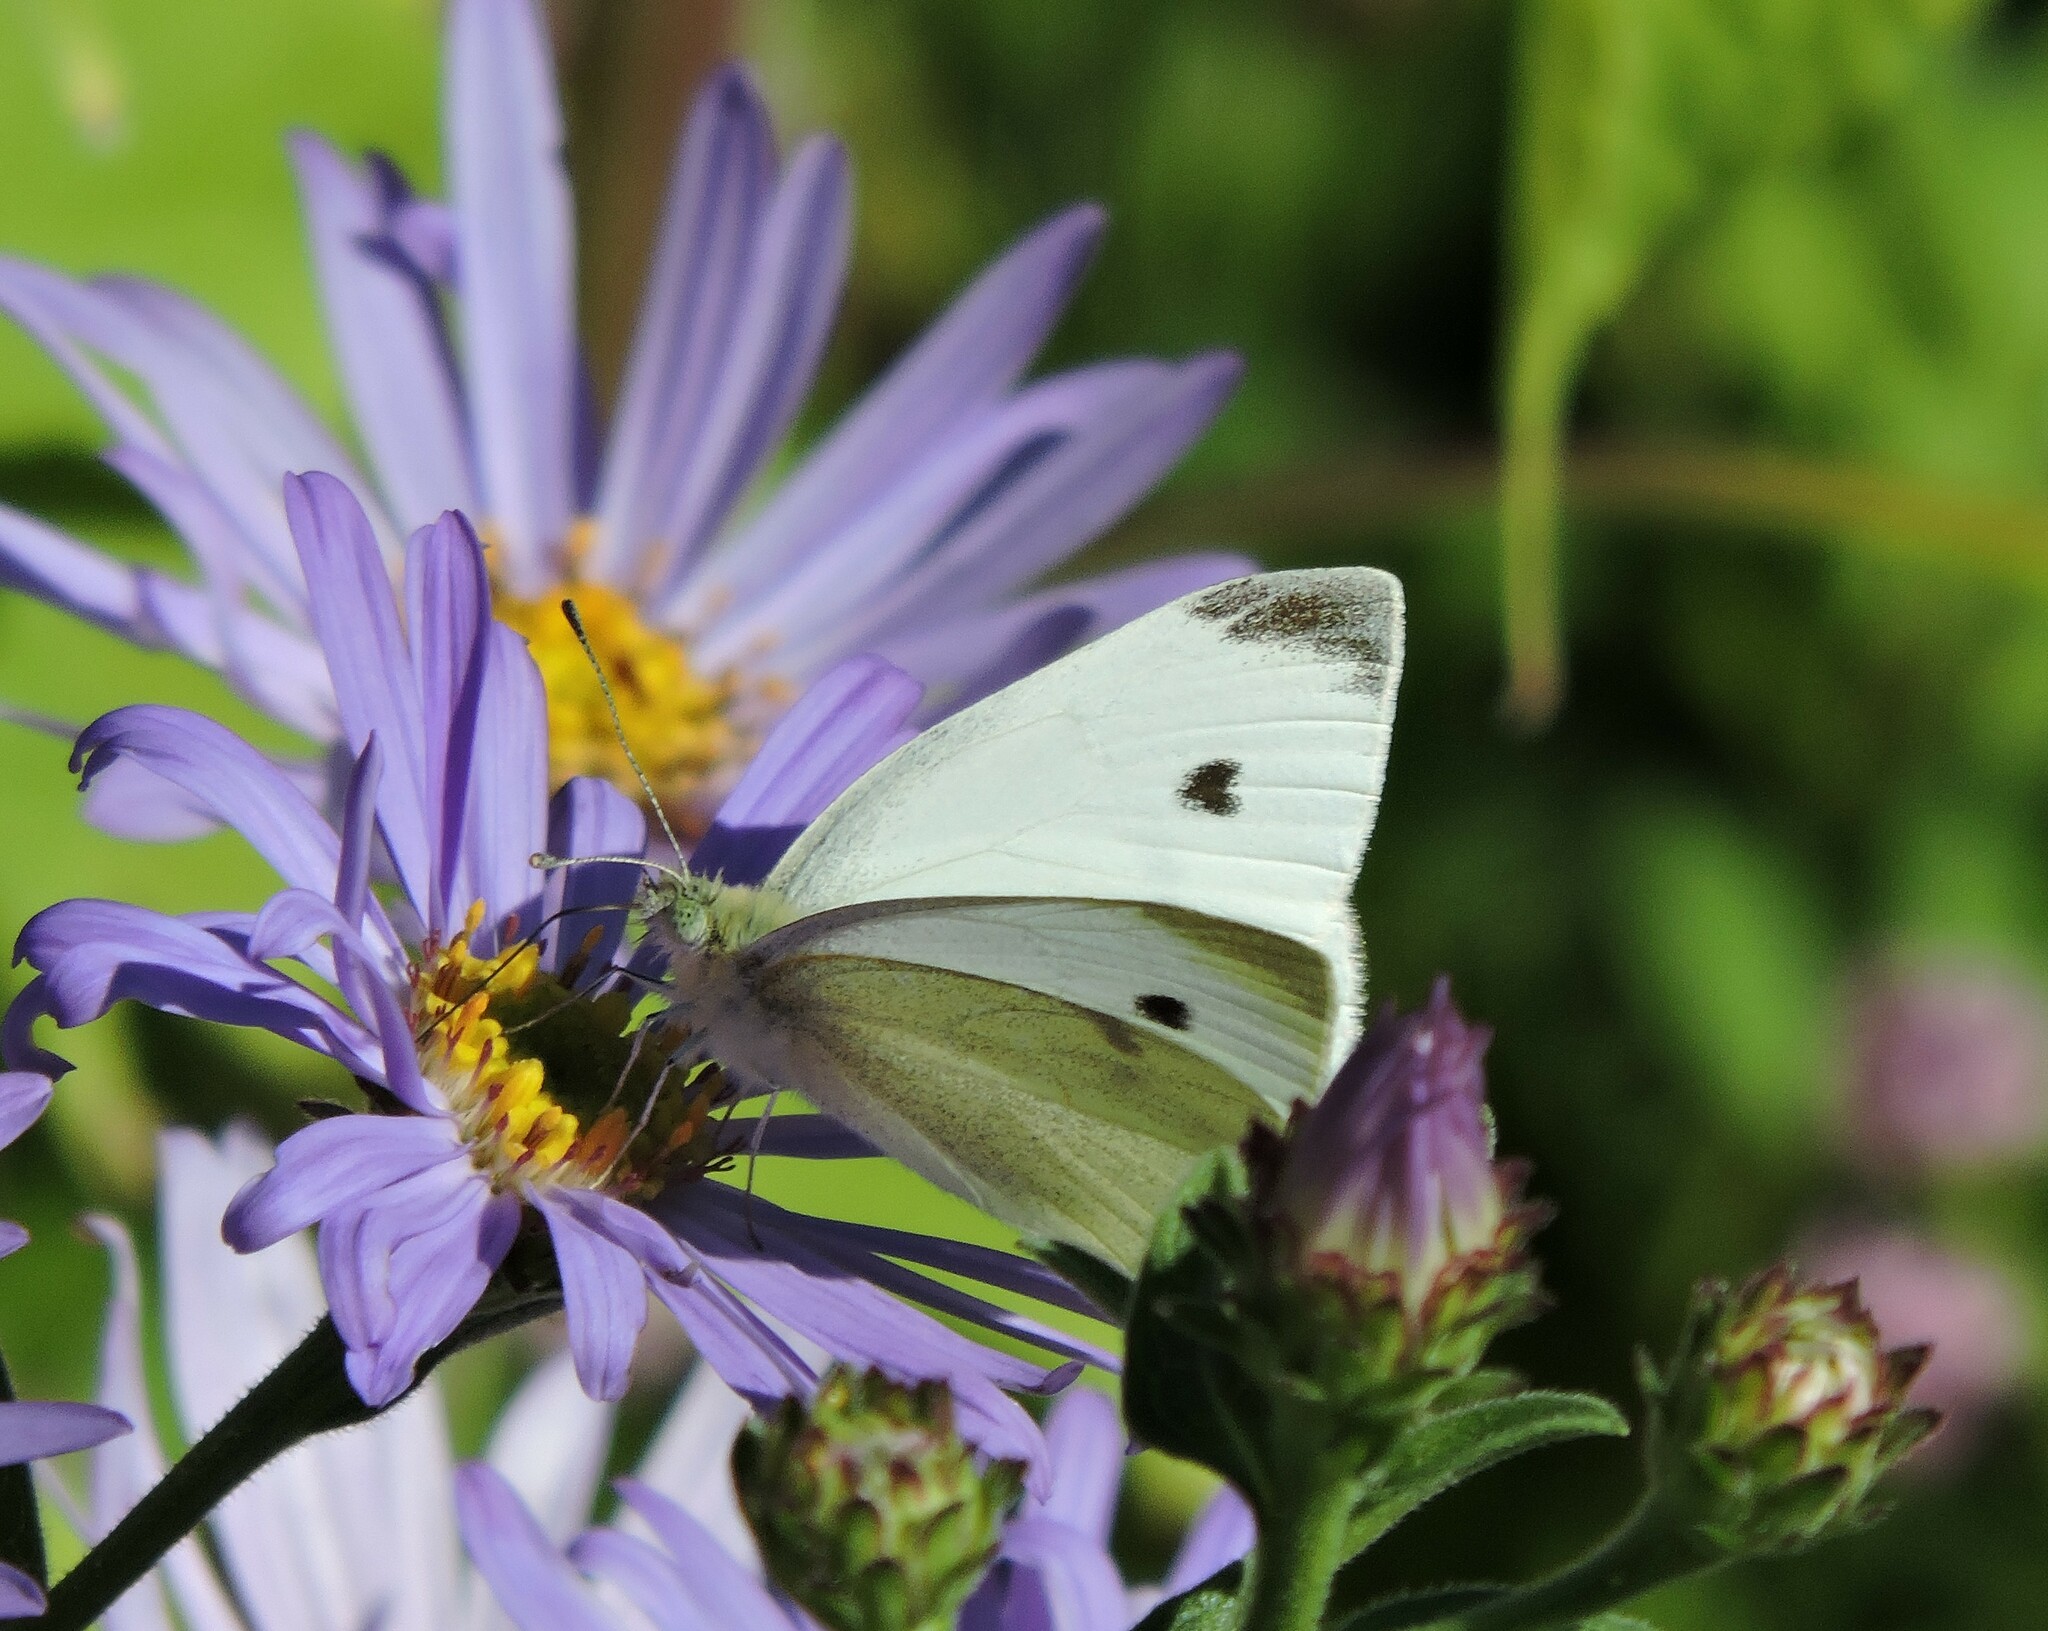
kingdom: Animalia
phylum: Arthropoda
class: Insecta
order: Lepidoptera
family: Pieridae
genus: Pieris
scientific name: Pieris rapae
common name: Small white
